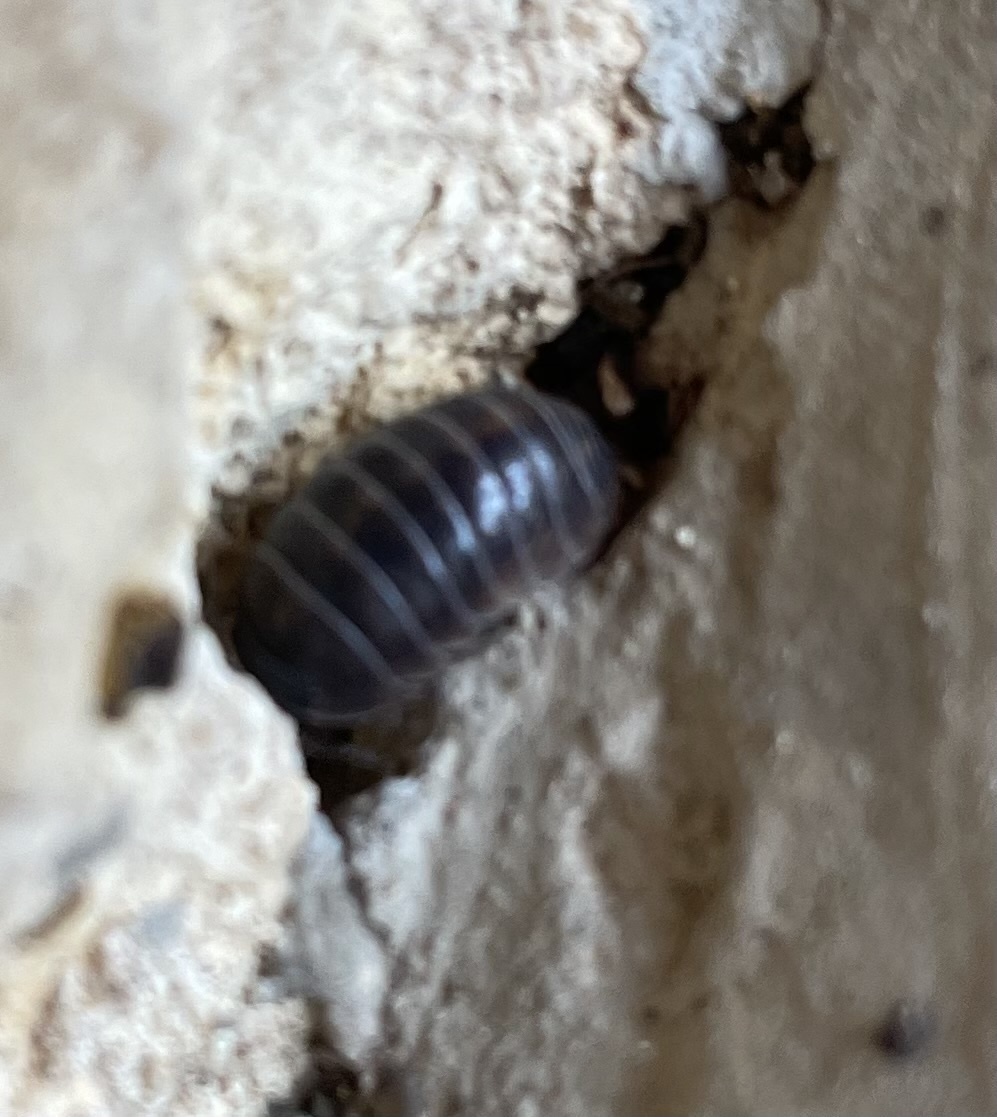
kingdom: Animalia
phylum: Arthropoda
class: Malacostraca
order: Isopoda
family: Armadillidiidae
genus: Armadillidium
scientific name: Armadillidium vulgare
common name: Common pill woodlouse
